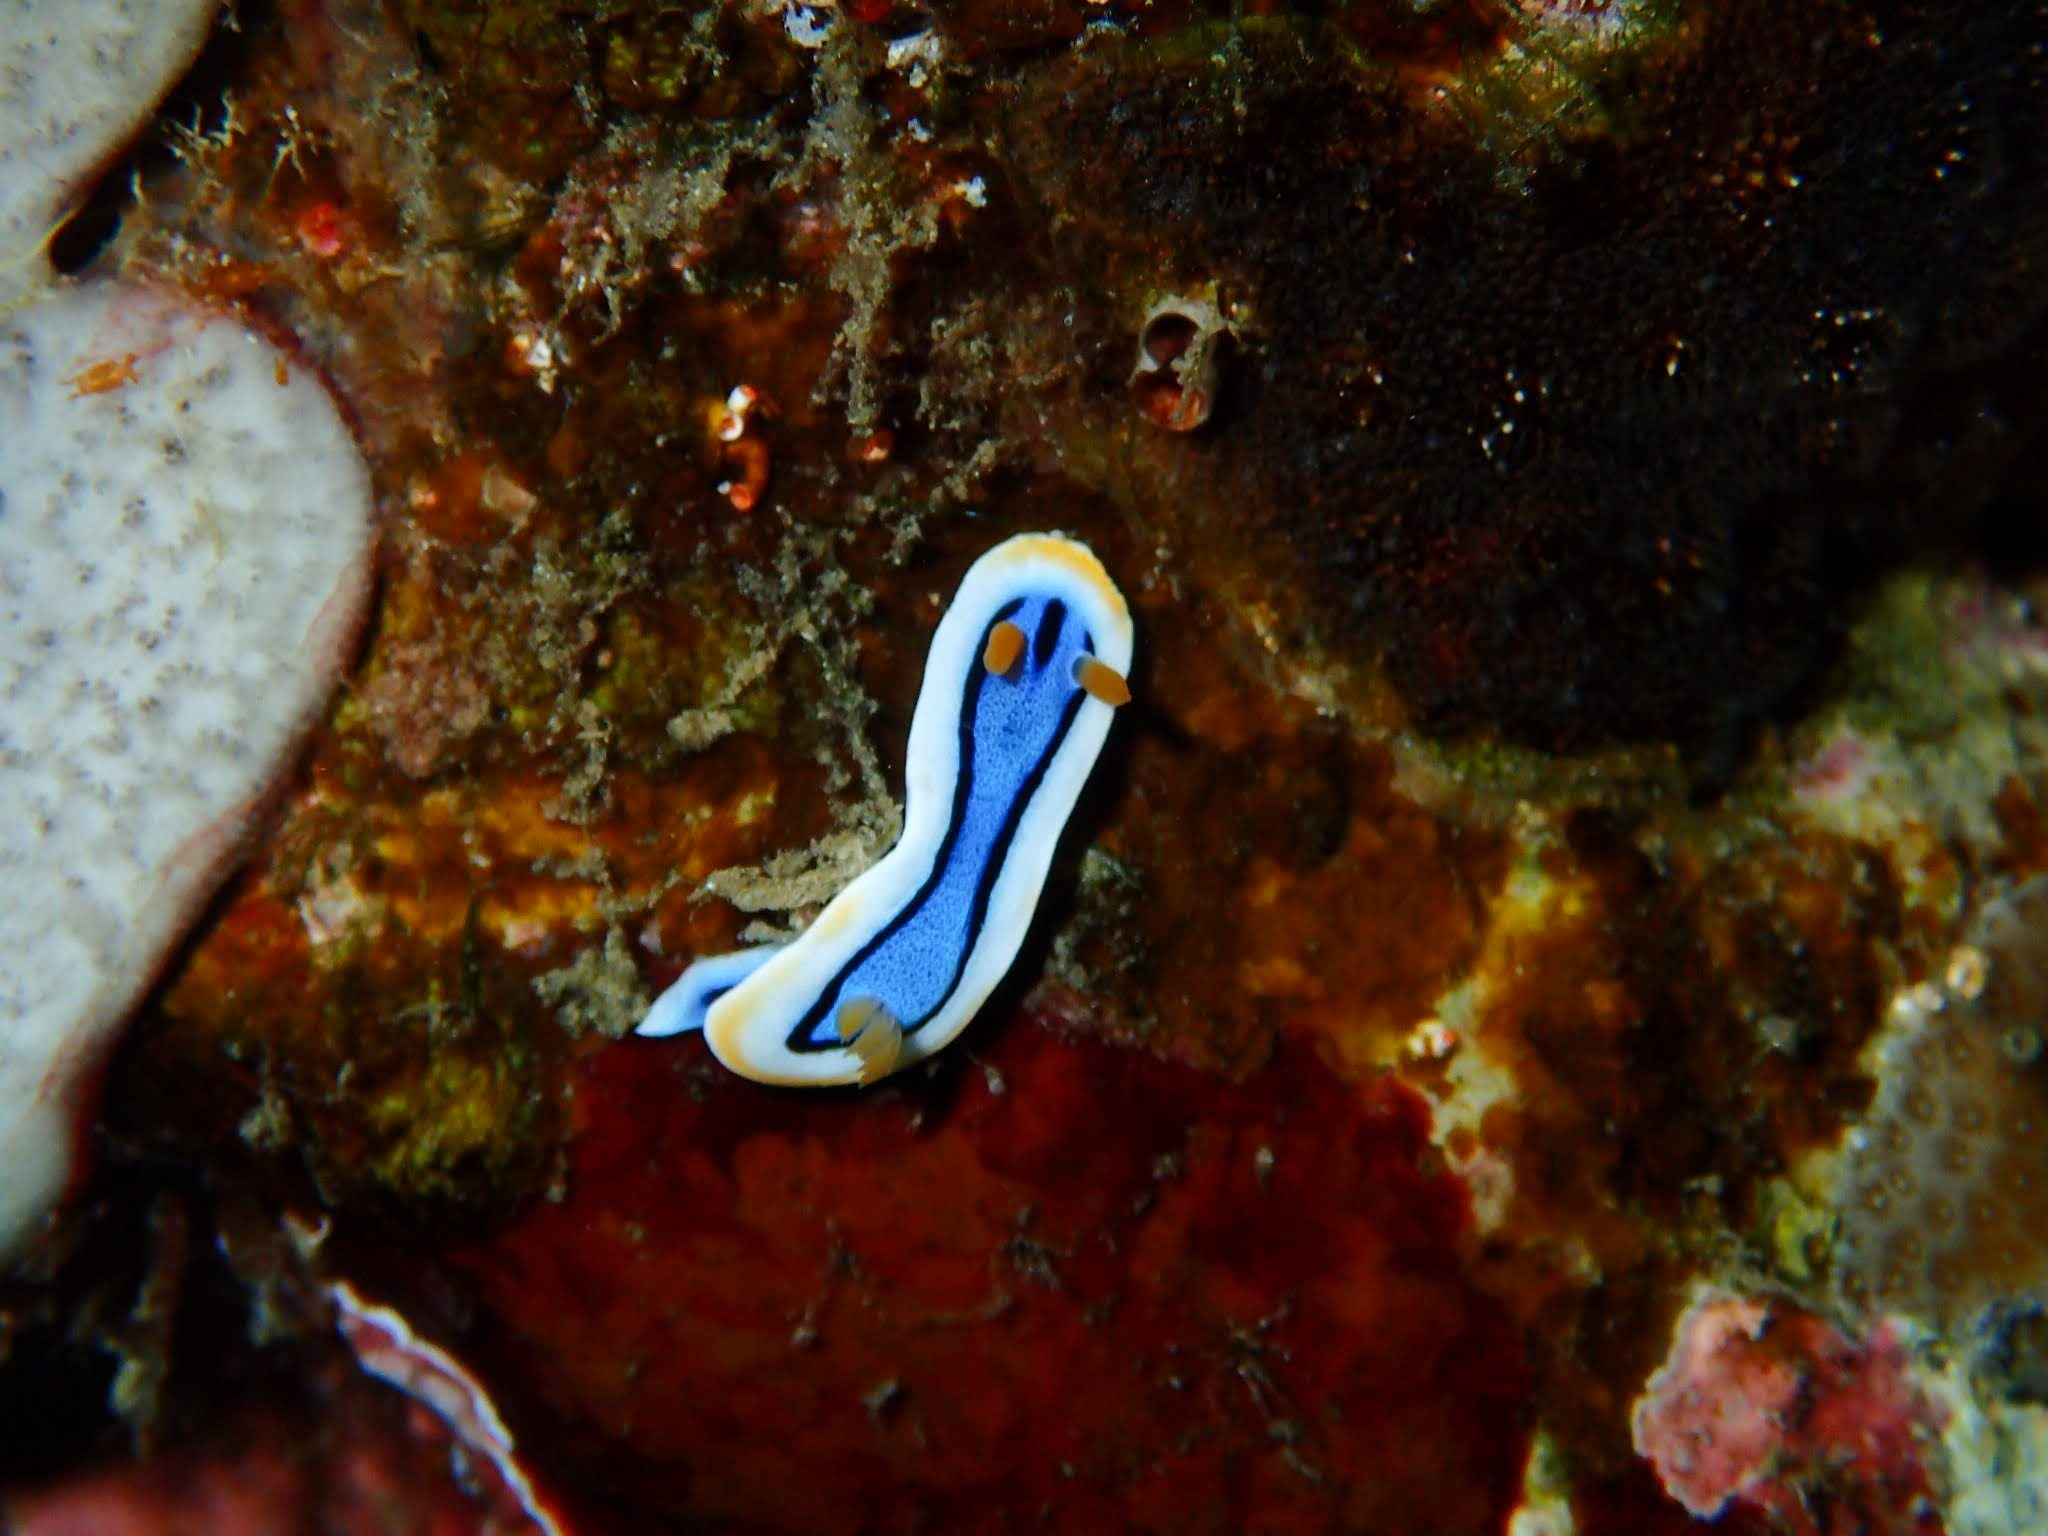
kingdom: Animalia
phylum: Mollusca
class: Gastropoda
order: Nudibranchia
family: Chromodorididae
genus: Chromodoris
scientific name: Chromodoris annae
